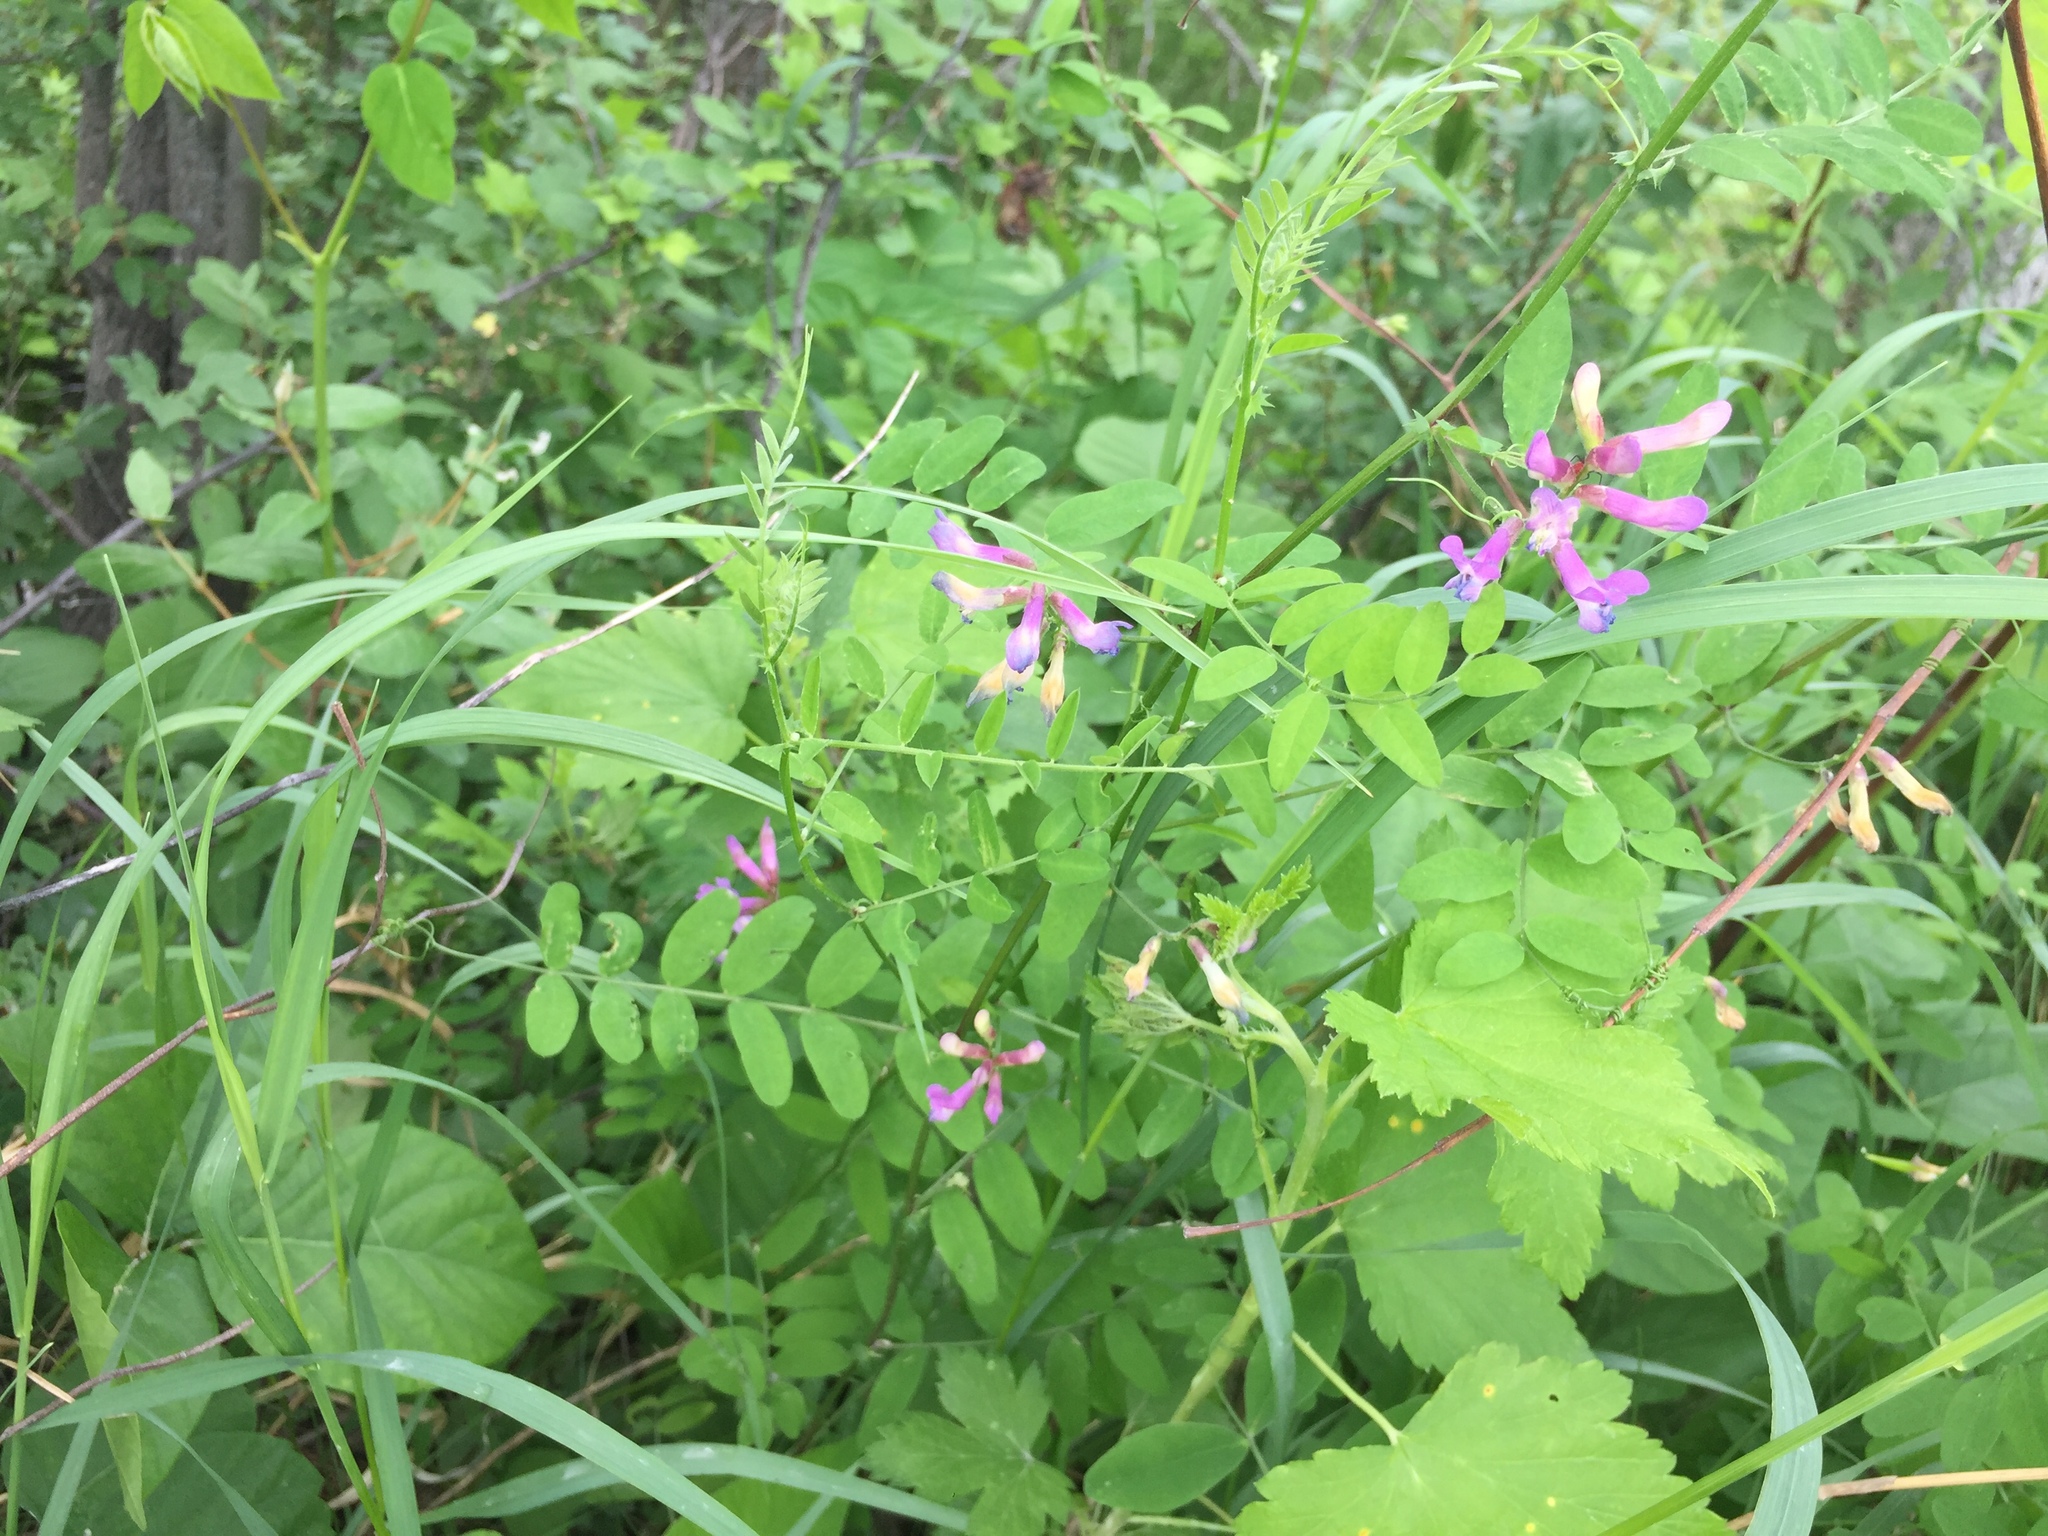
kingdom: Plantae
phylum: Tracheophyta
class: Magnoliopsida
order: Fabales
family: Fabaceae
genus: Vicia
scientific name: Vicia americana
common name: American vetch
